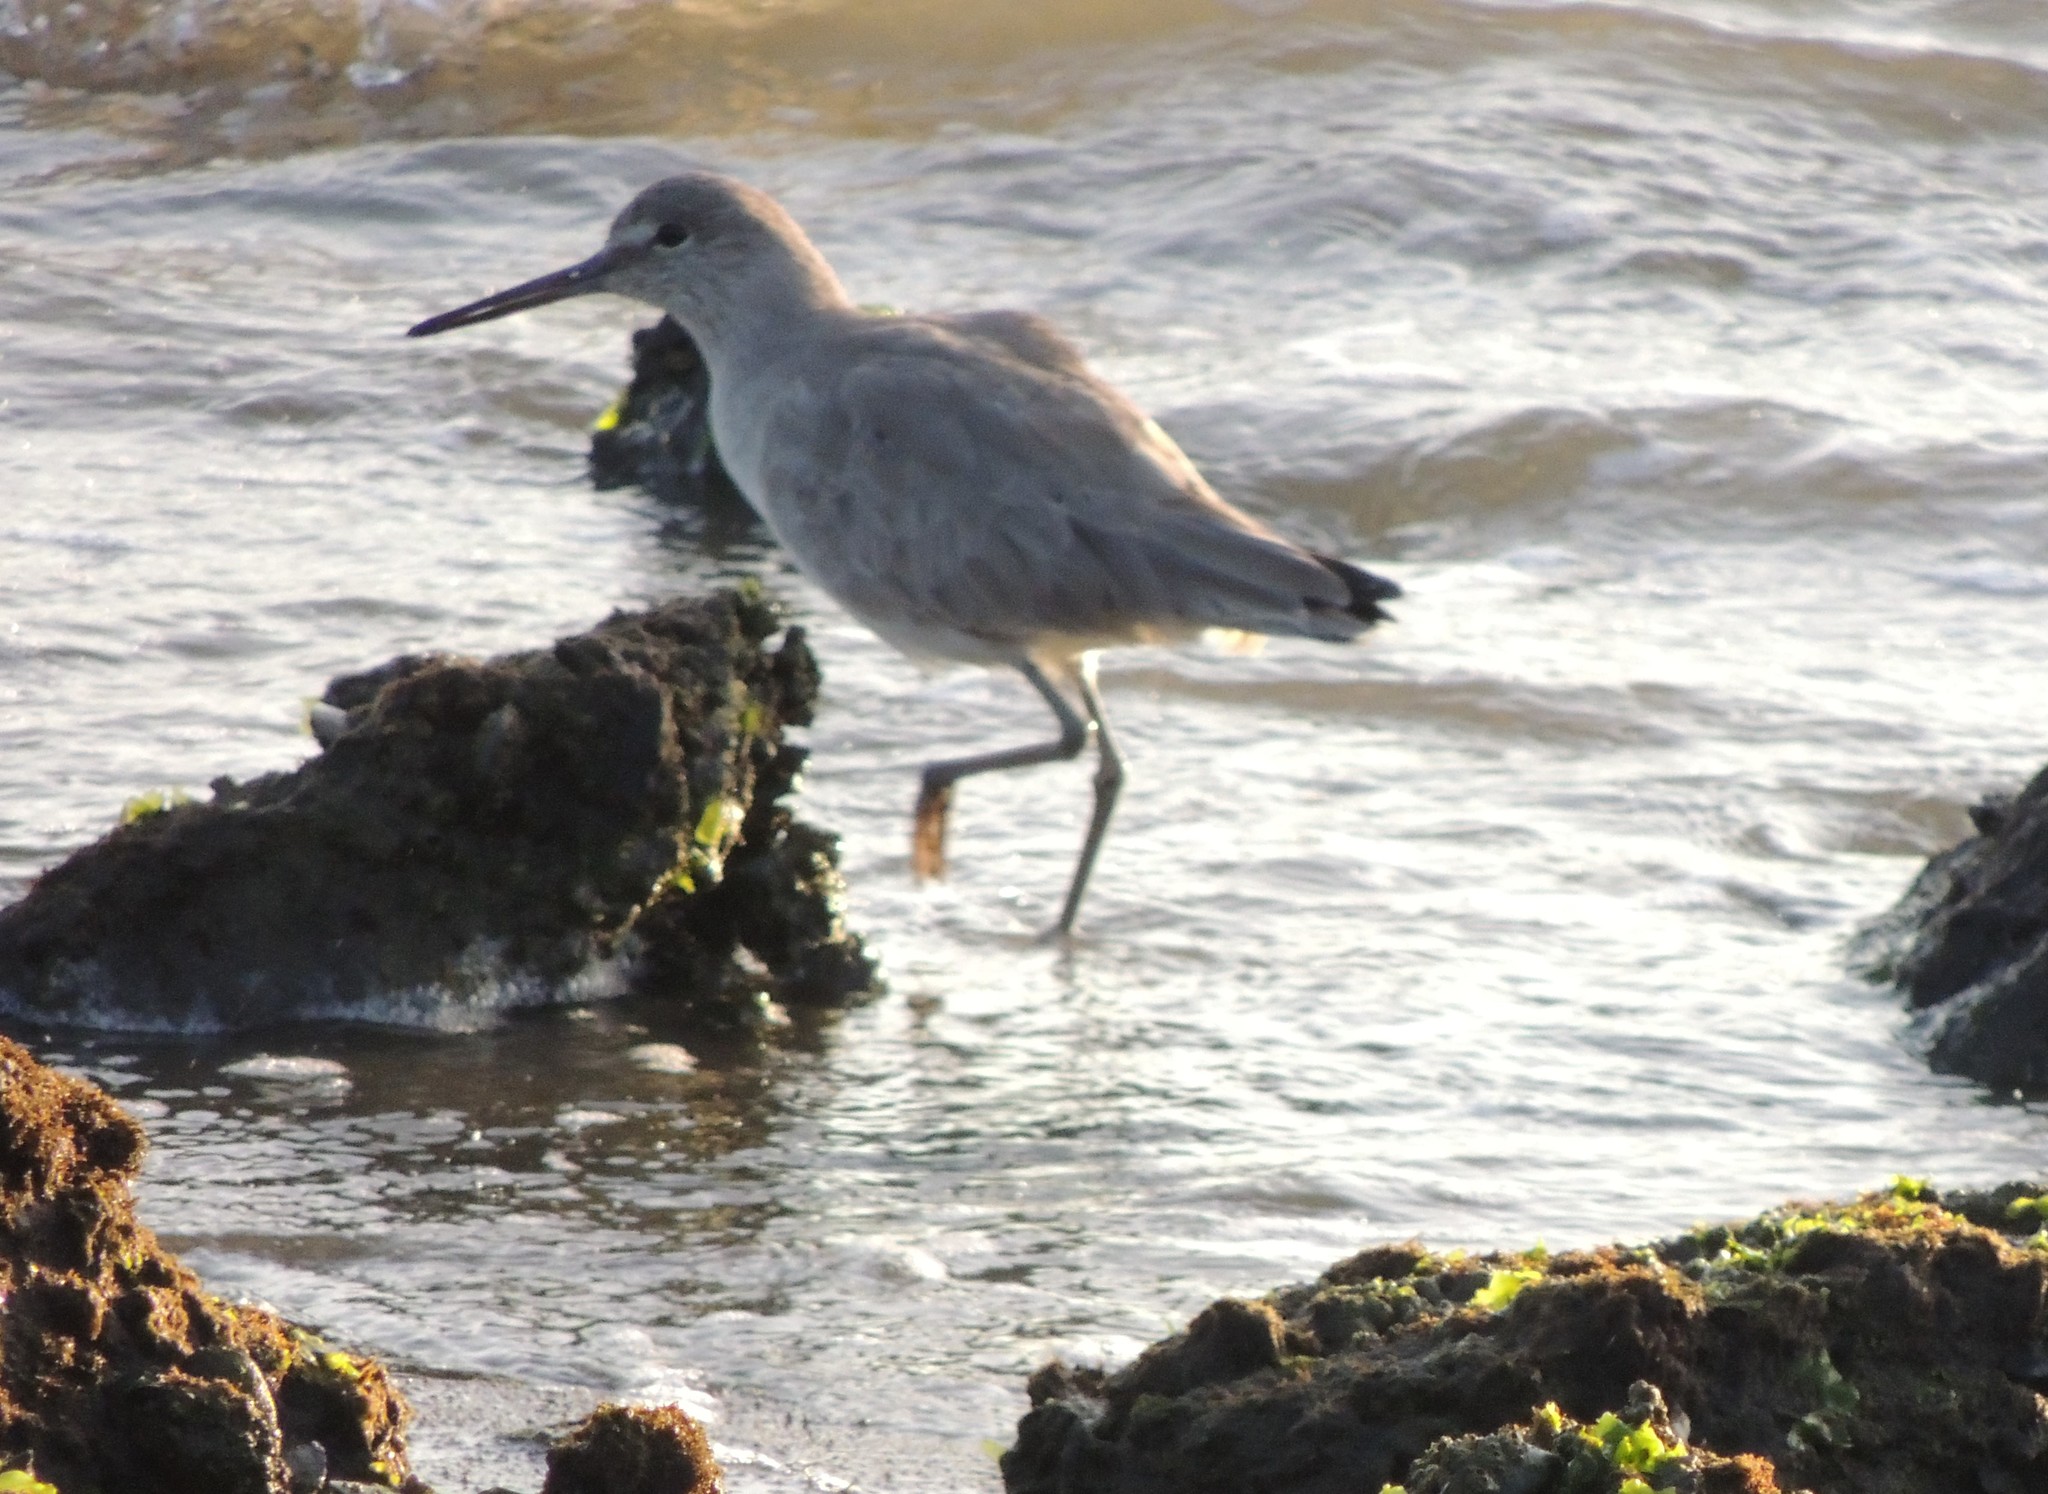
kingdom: Animalia
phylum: Chordata
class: Aves
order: Charadriiformes
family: Scolopacidae
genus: Tringa
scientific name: Tringa semipalmata
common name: Willet
